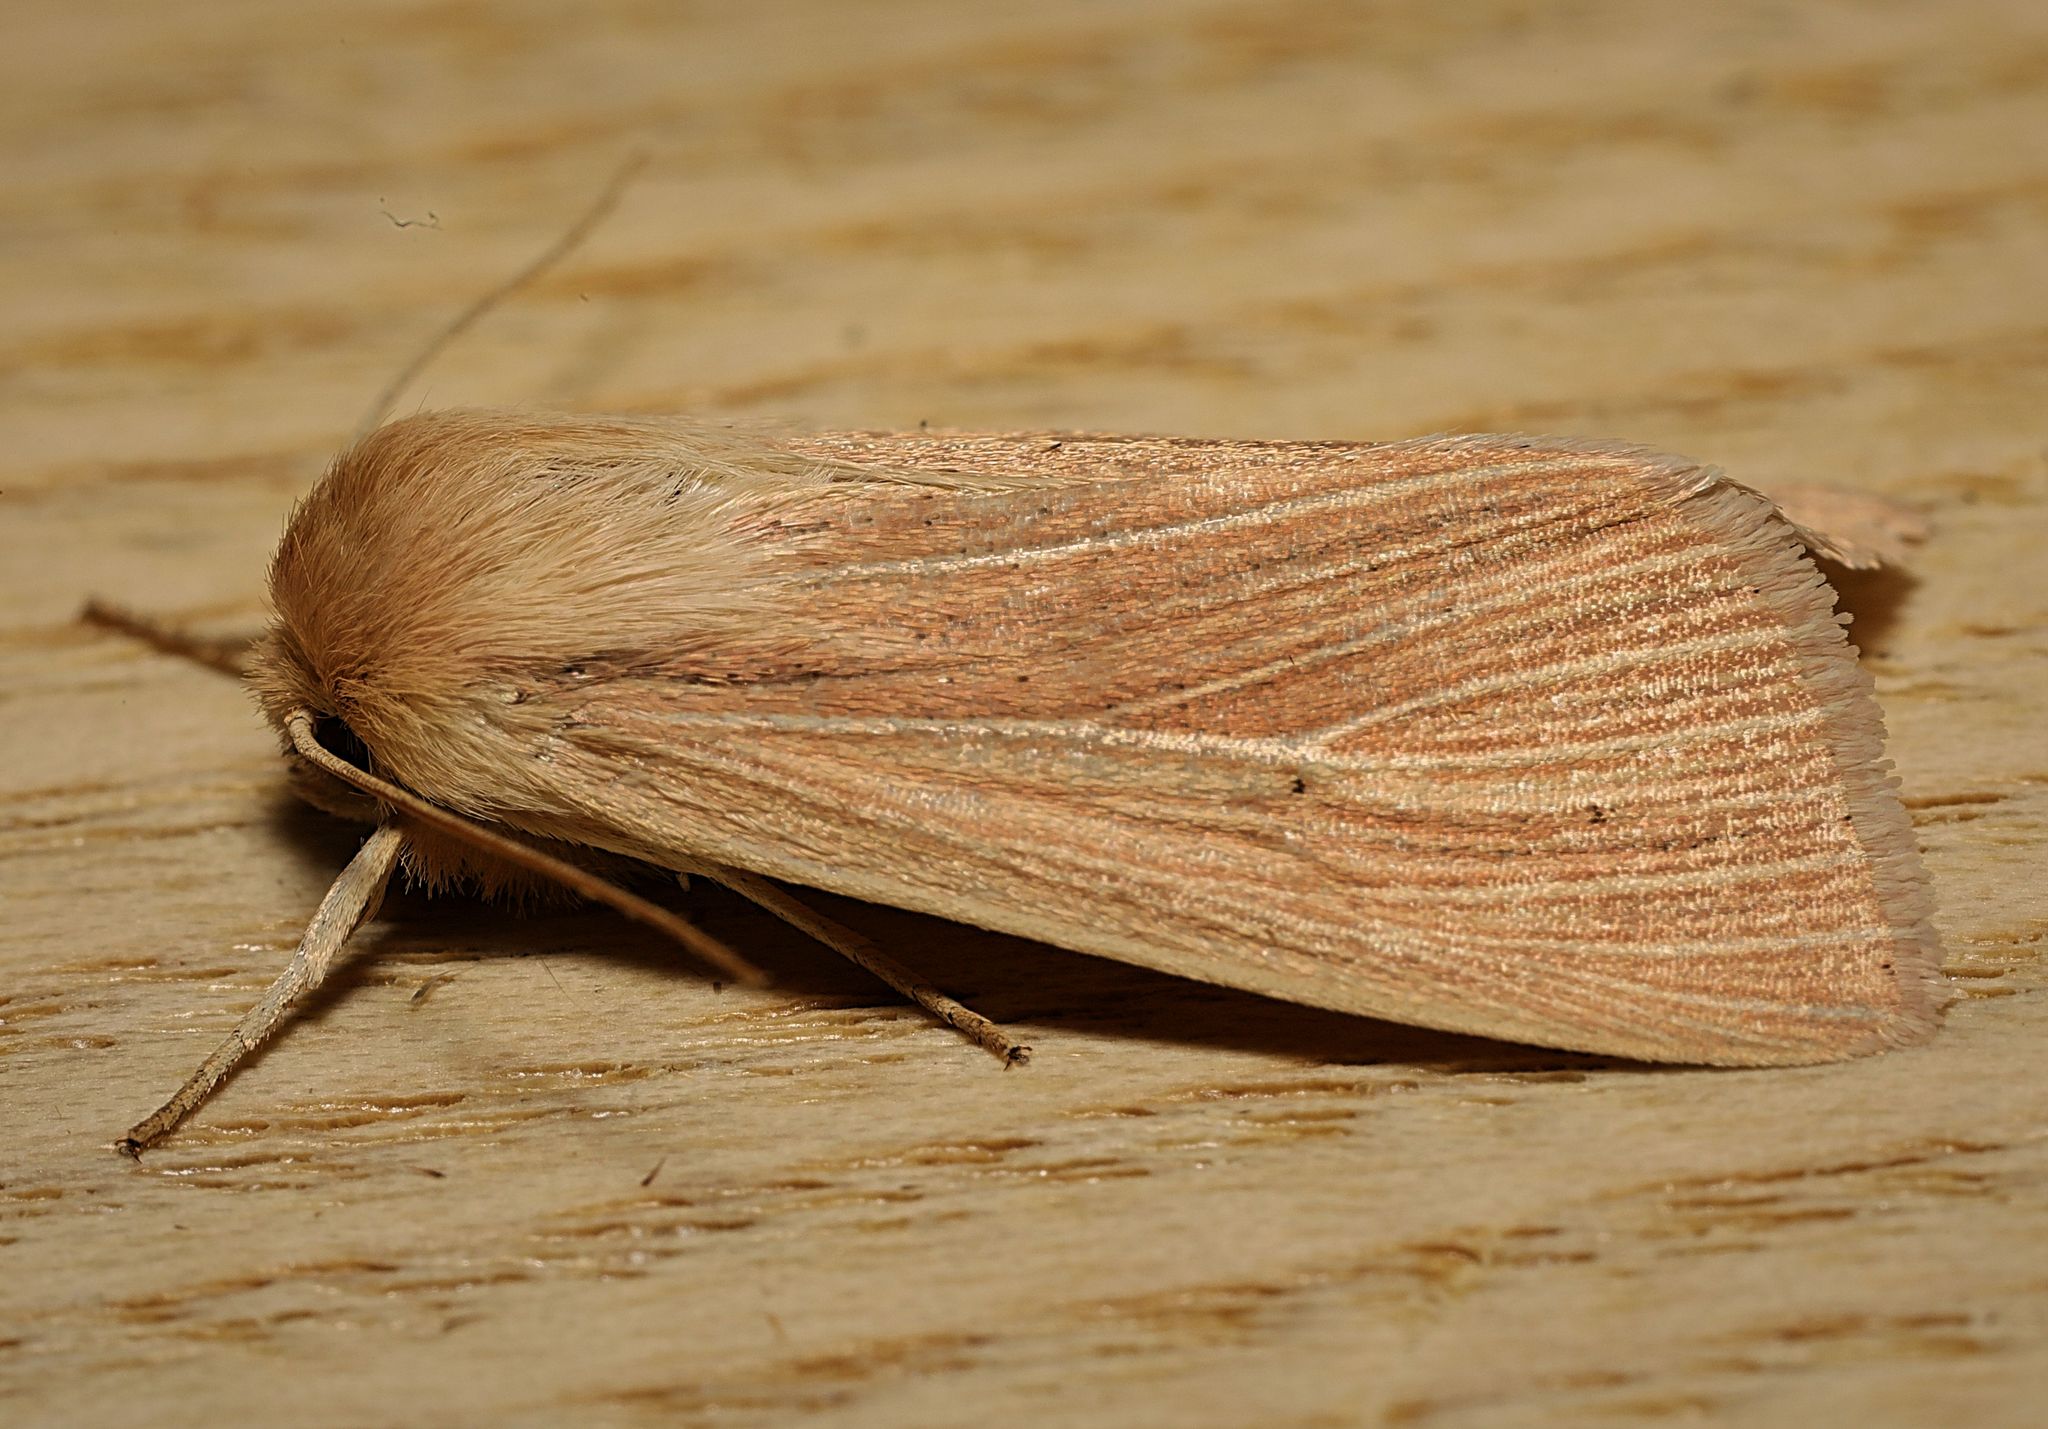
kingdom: Animalia
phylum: Arthropoda
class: Insecta
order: Lepidoptera
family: Noctuidae
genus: Mythimna
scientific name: Mythimna pallens
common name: Common wainscot
